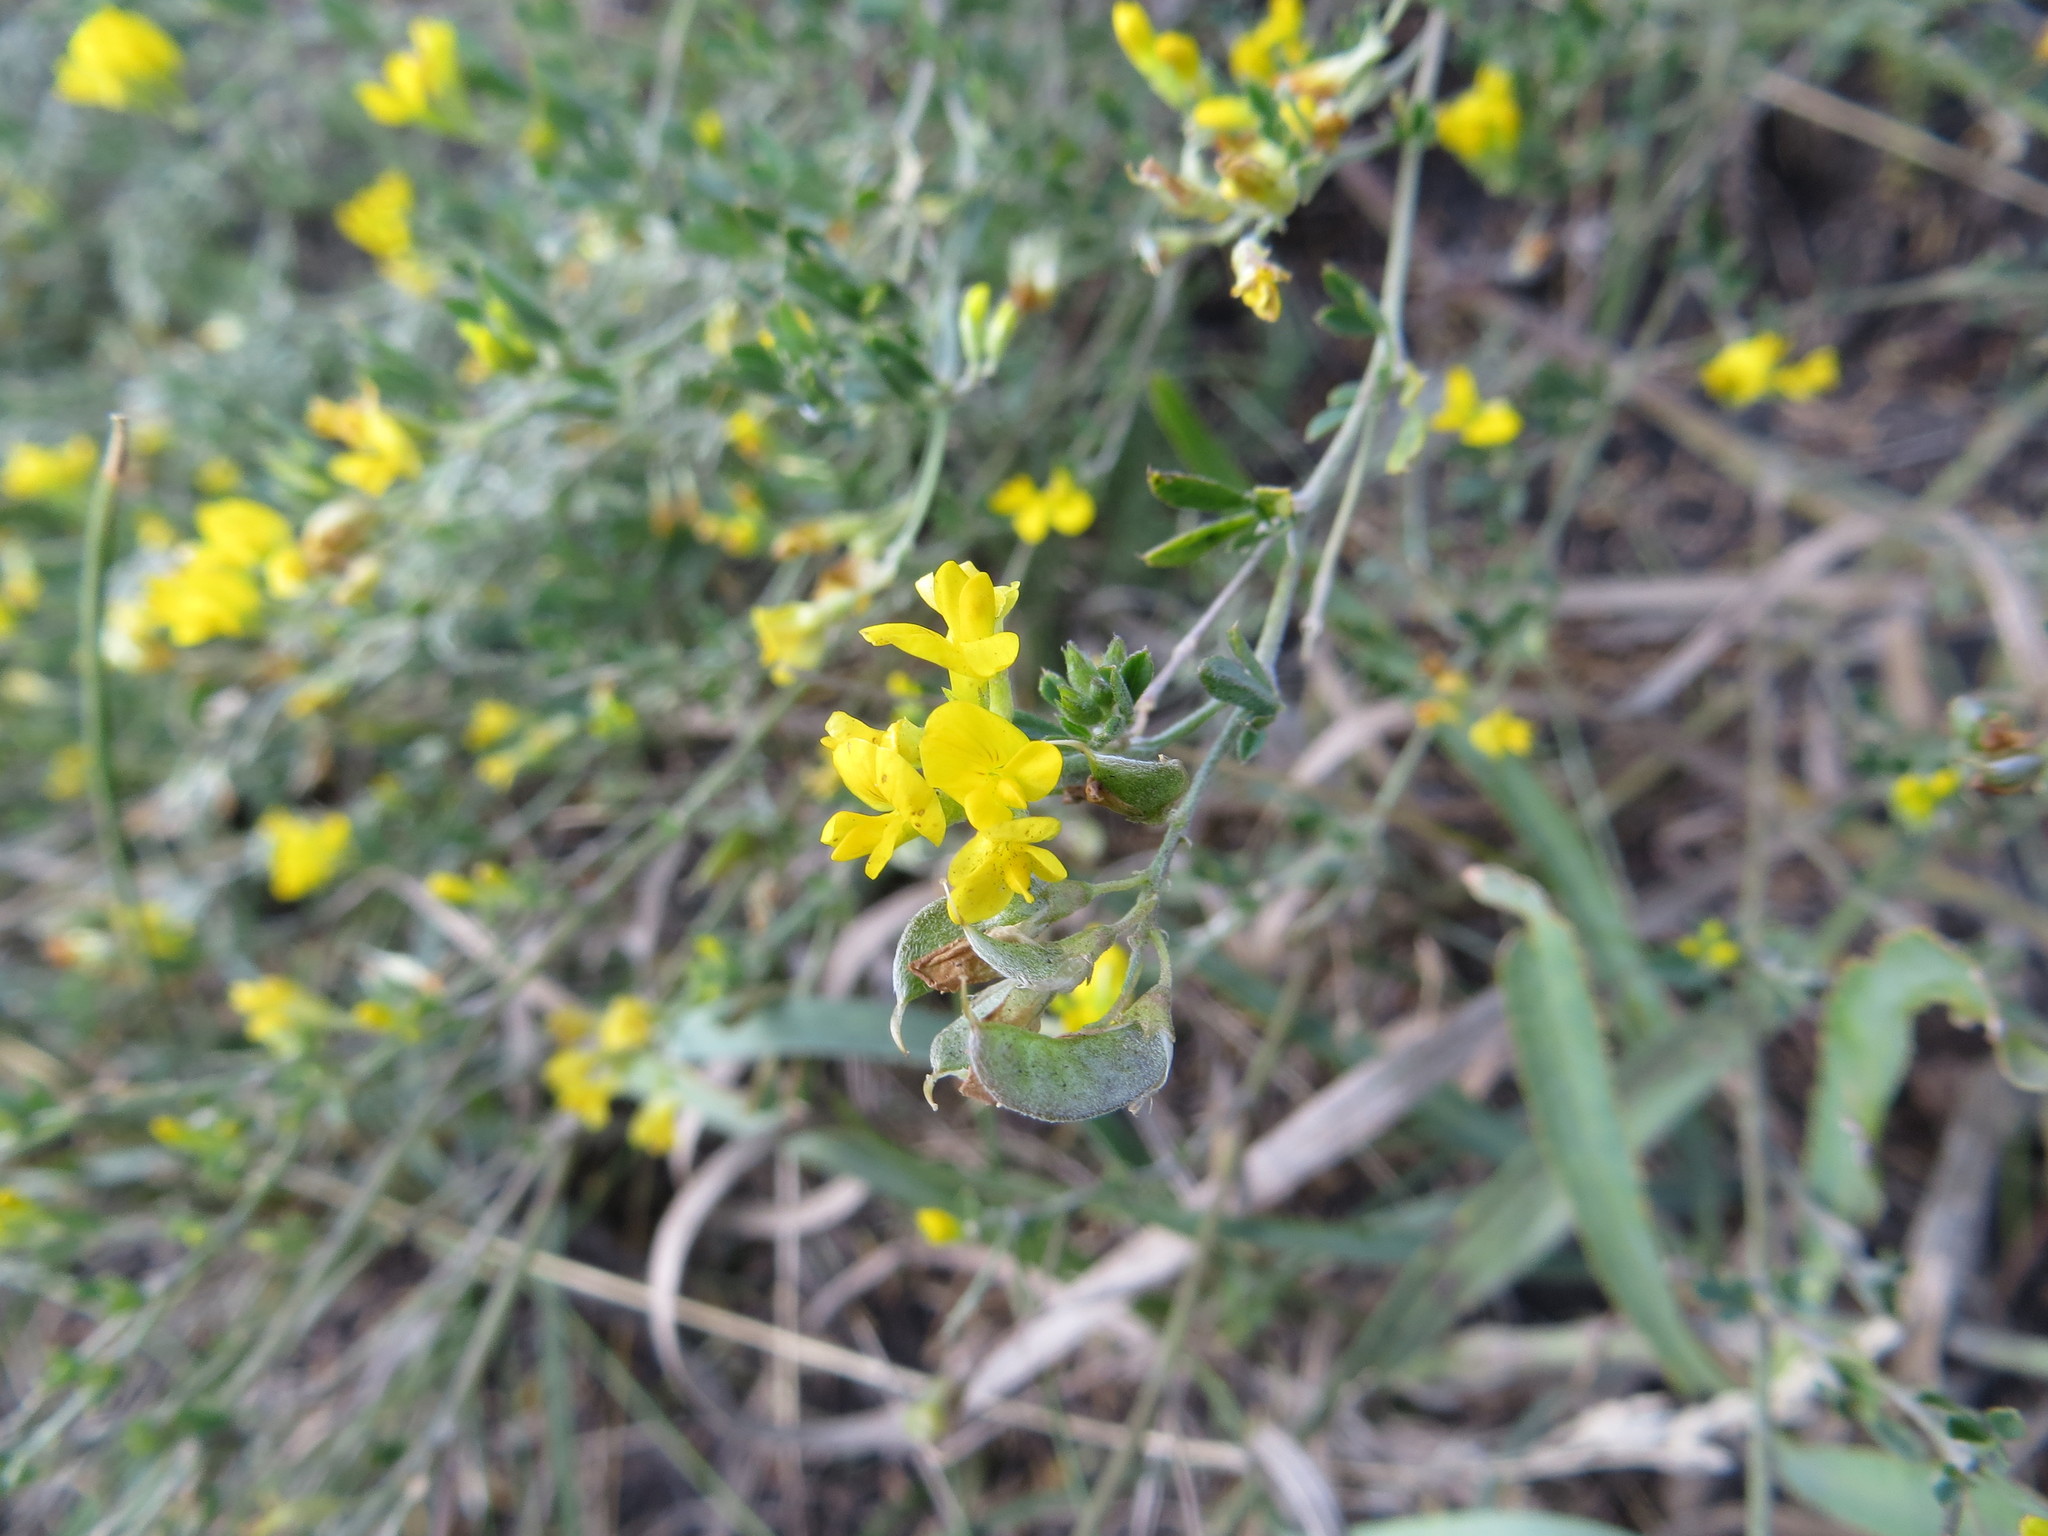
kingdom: Plantae
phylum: Tracheophyta
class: Magnoliopsida
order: Fabales
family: Fabaceae
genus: Medicago
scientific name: Medicago falcata
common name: Sickle medick
